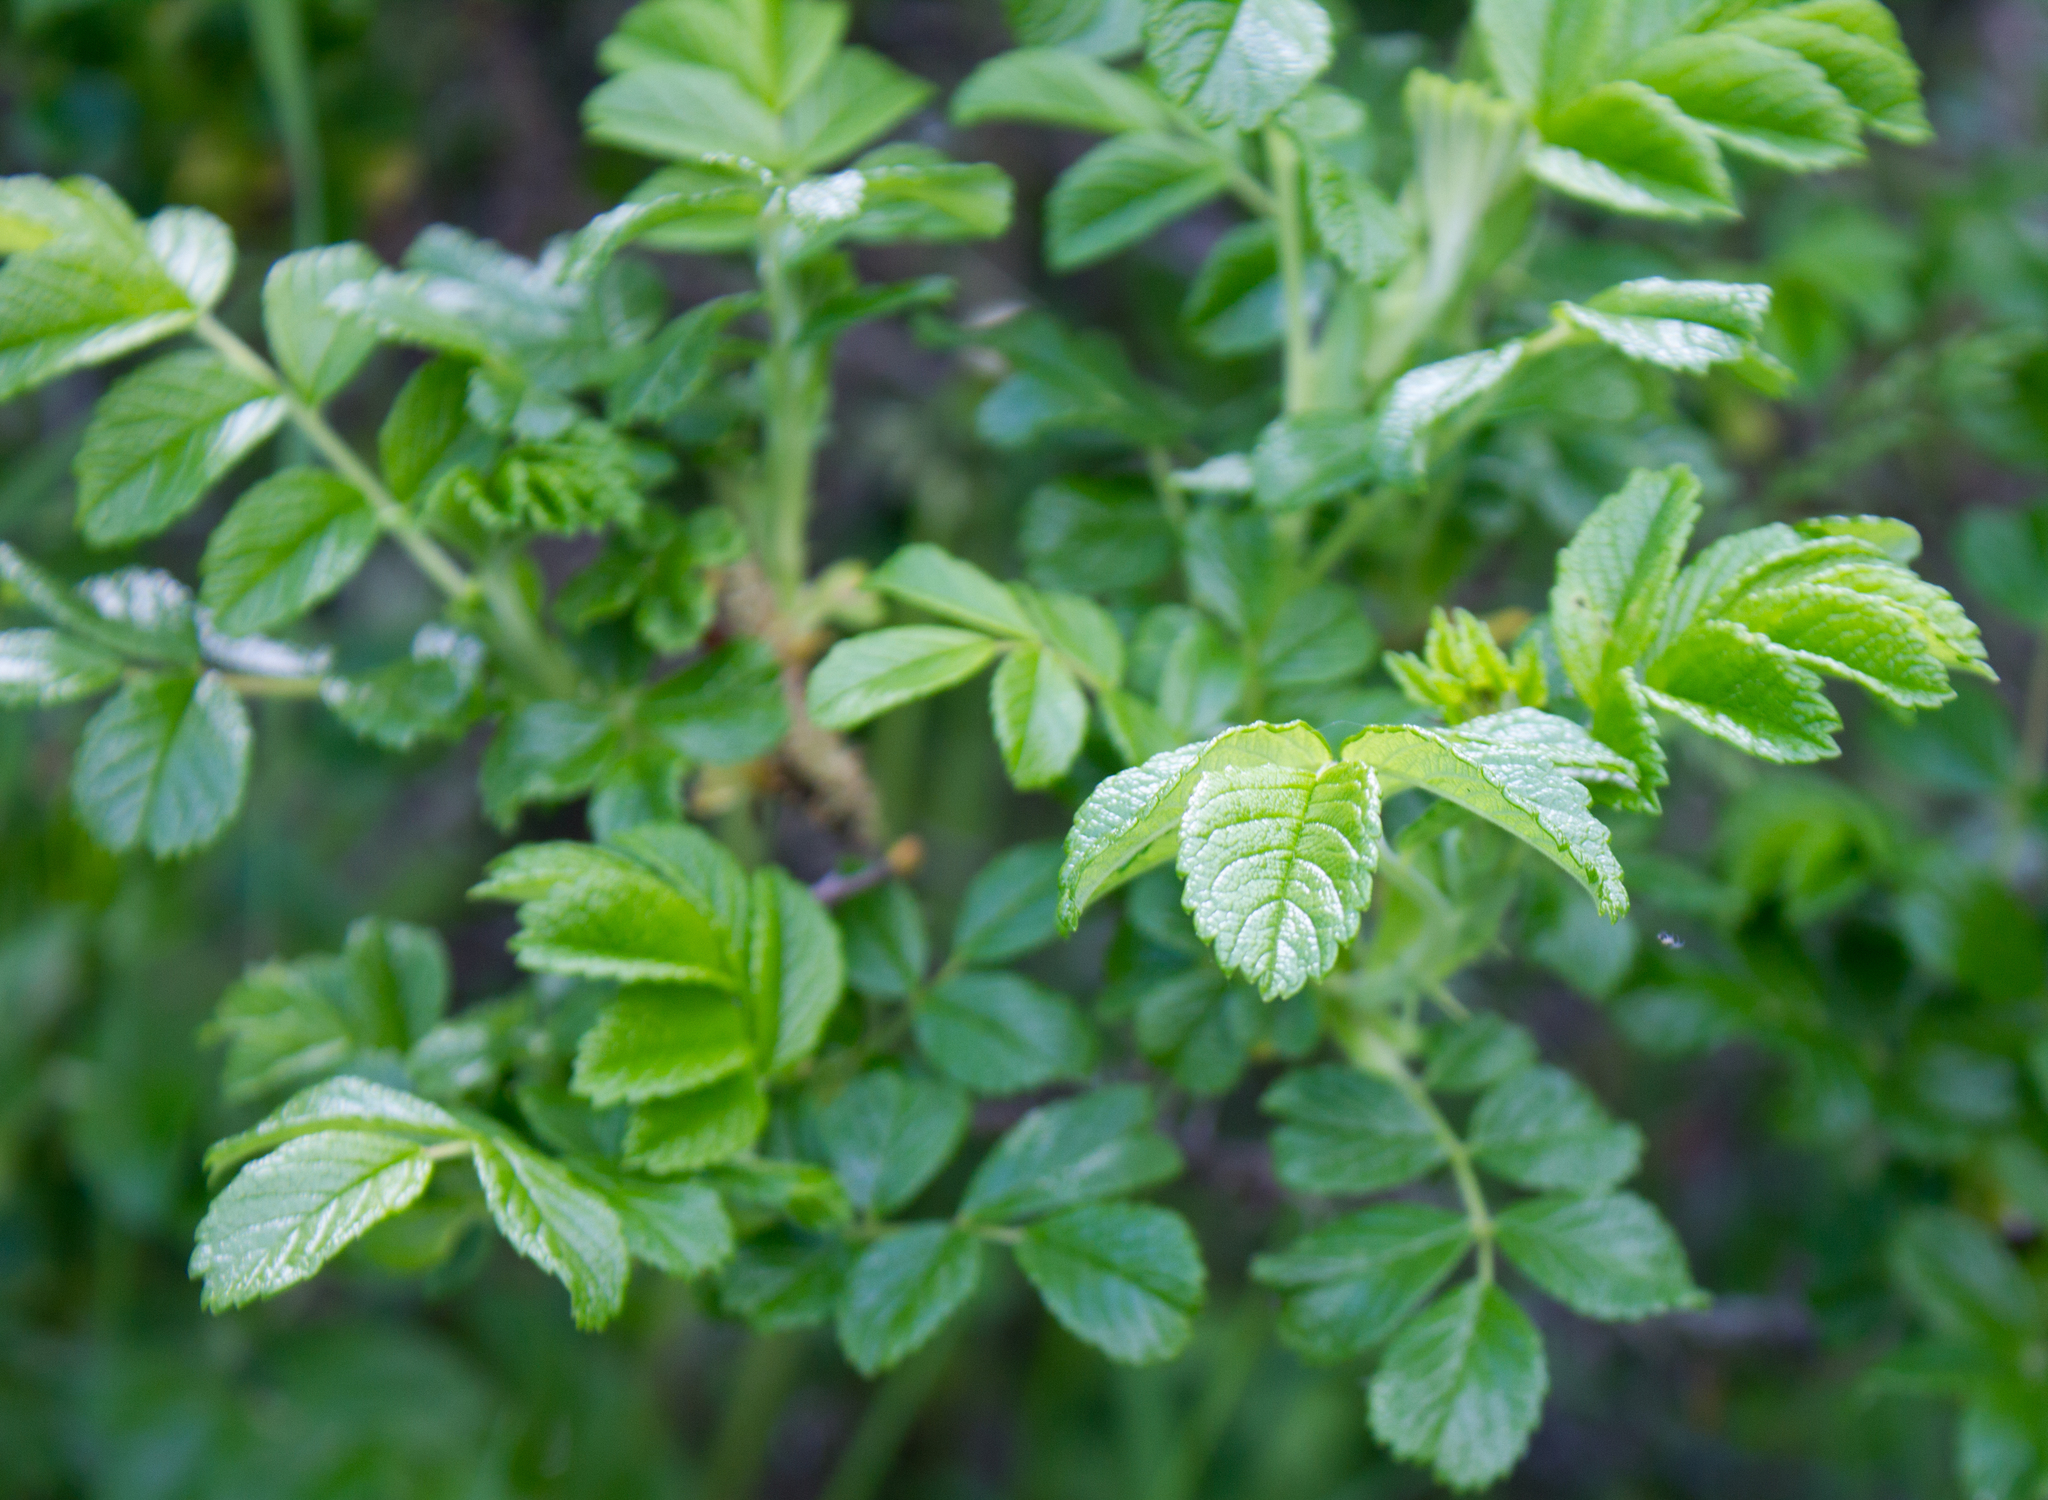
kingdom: Plantae
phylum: Tracheophyta
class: Magnoliopsida
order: Rosales
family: Rosaceae
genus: Rosa
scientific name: Rosa rugosa
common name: Japanese rose
